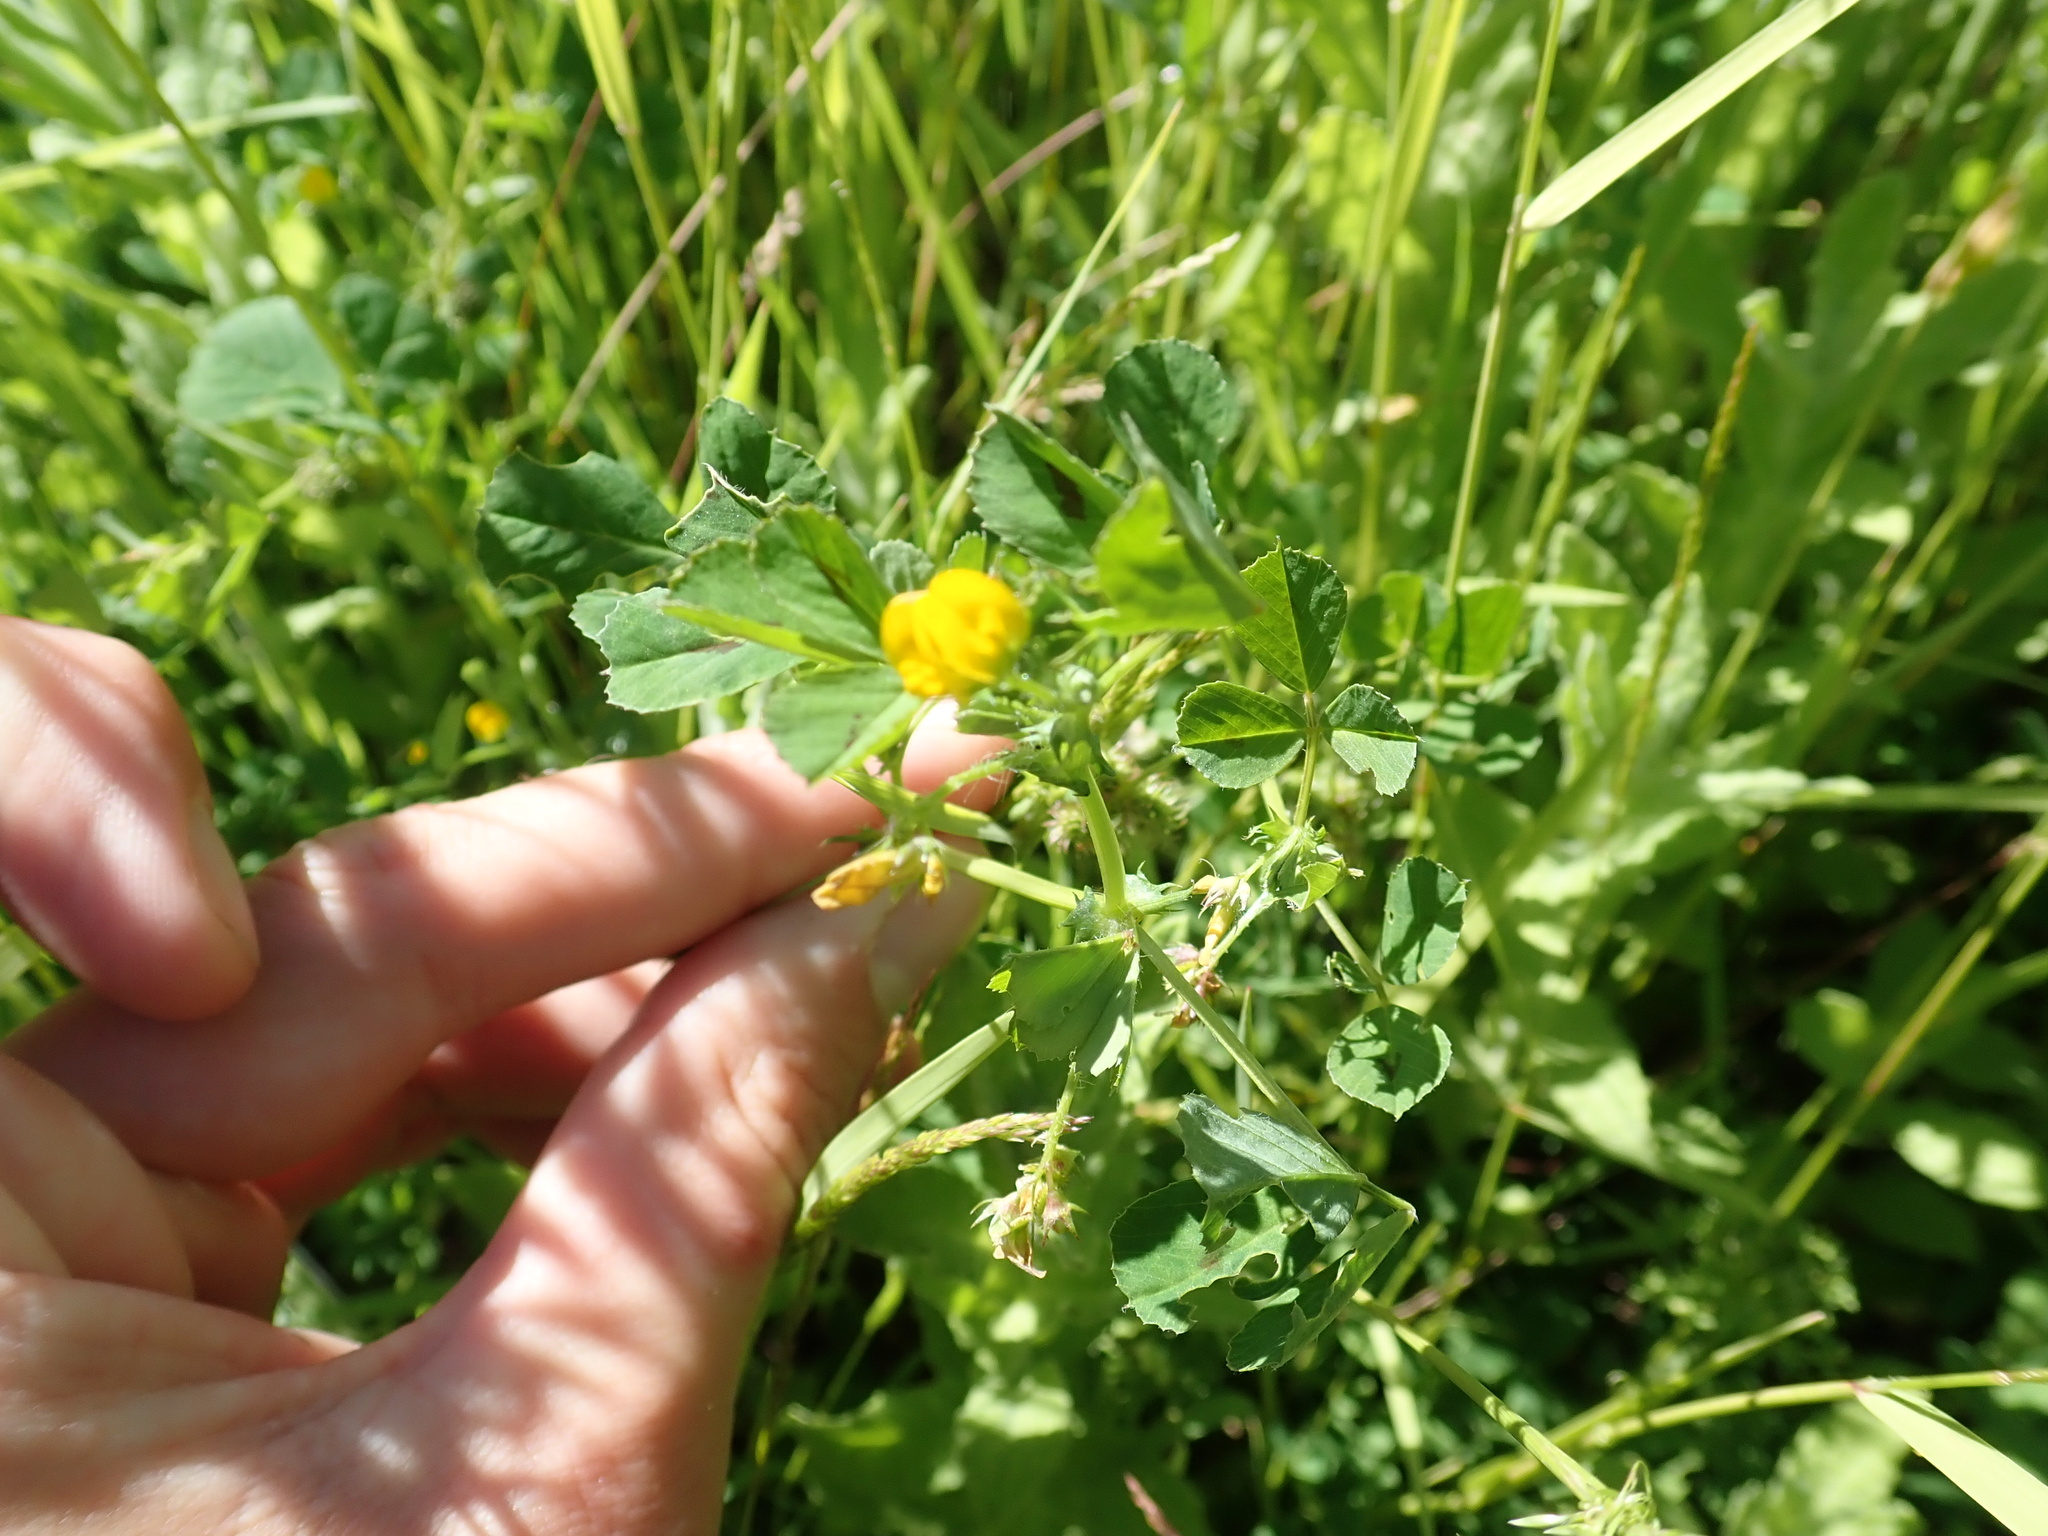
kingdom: Plantae
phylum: Tracheophyta
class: Magnoliopsida
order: Fabales
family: Fabaceae
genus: Medicago
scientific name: Medicago arabica
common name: Spotted medick
